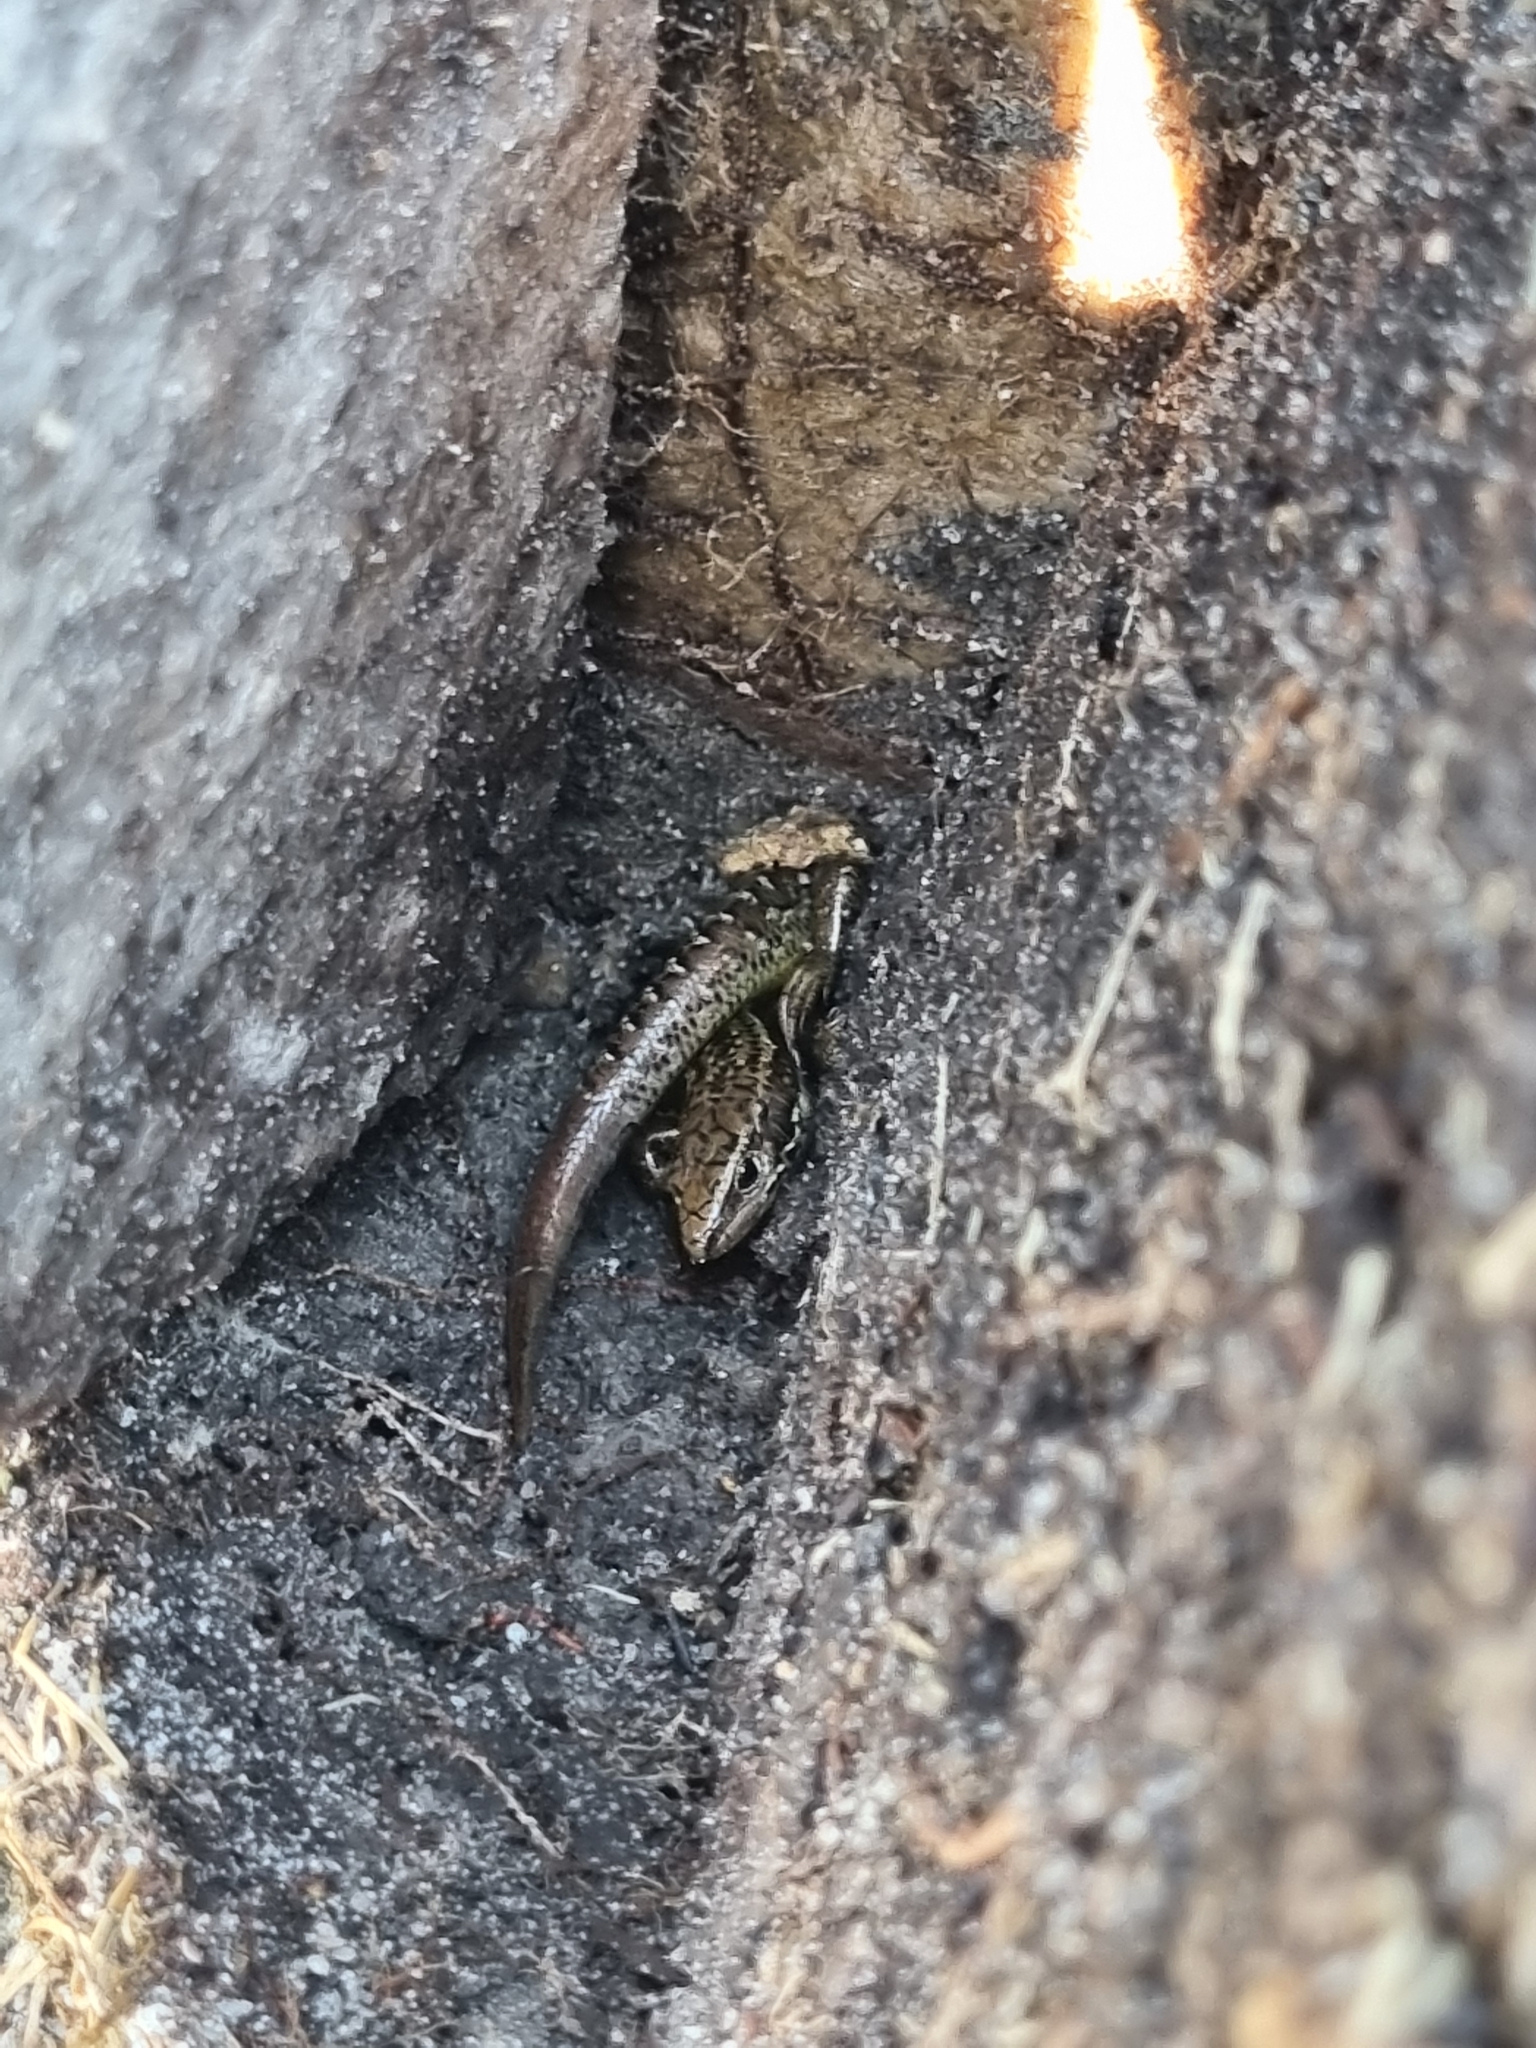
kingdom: Animalia
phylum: Chordata
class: Squamata
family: Scincidae
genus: Oligosoma
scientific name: Oligosoma newmani
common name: Newman’s speckled skink
